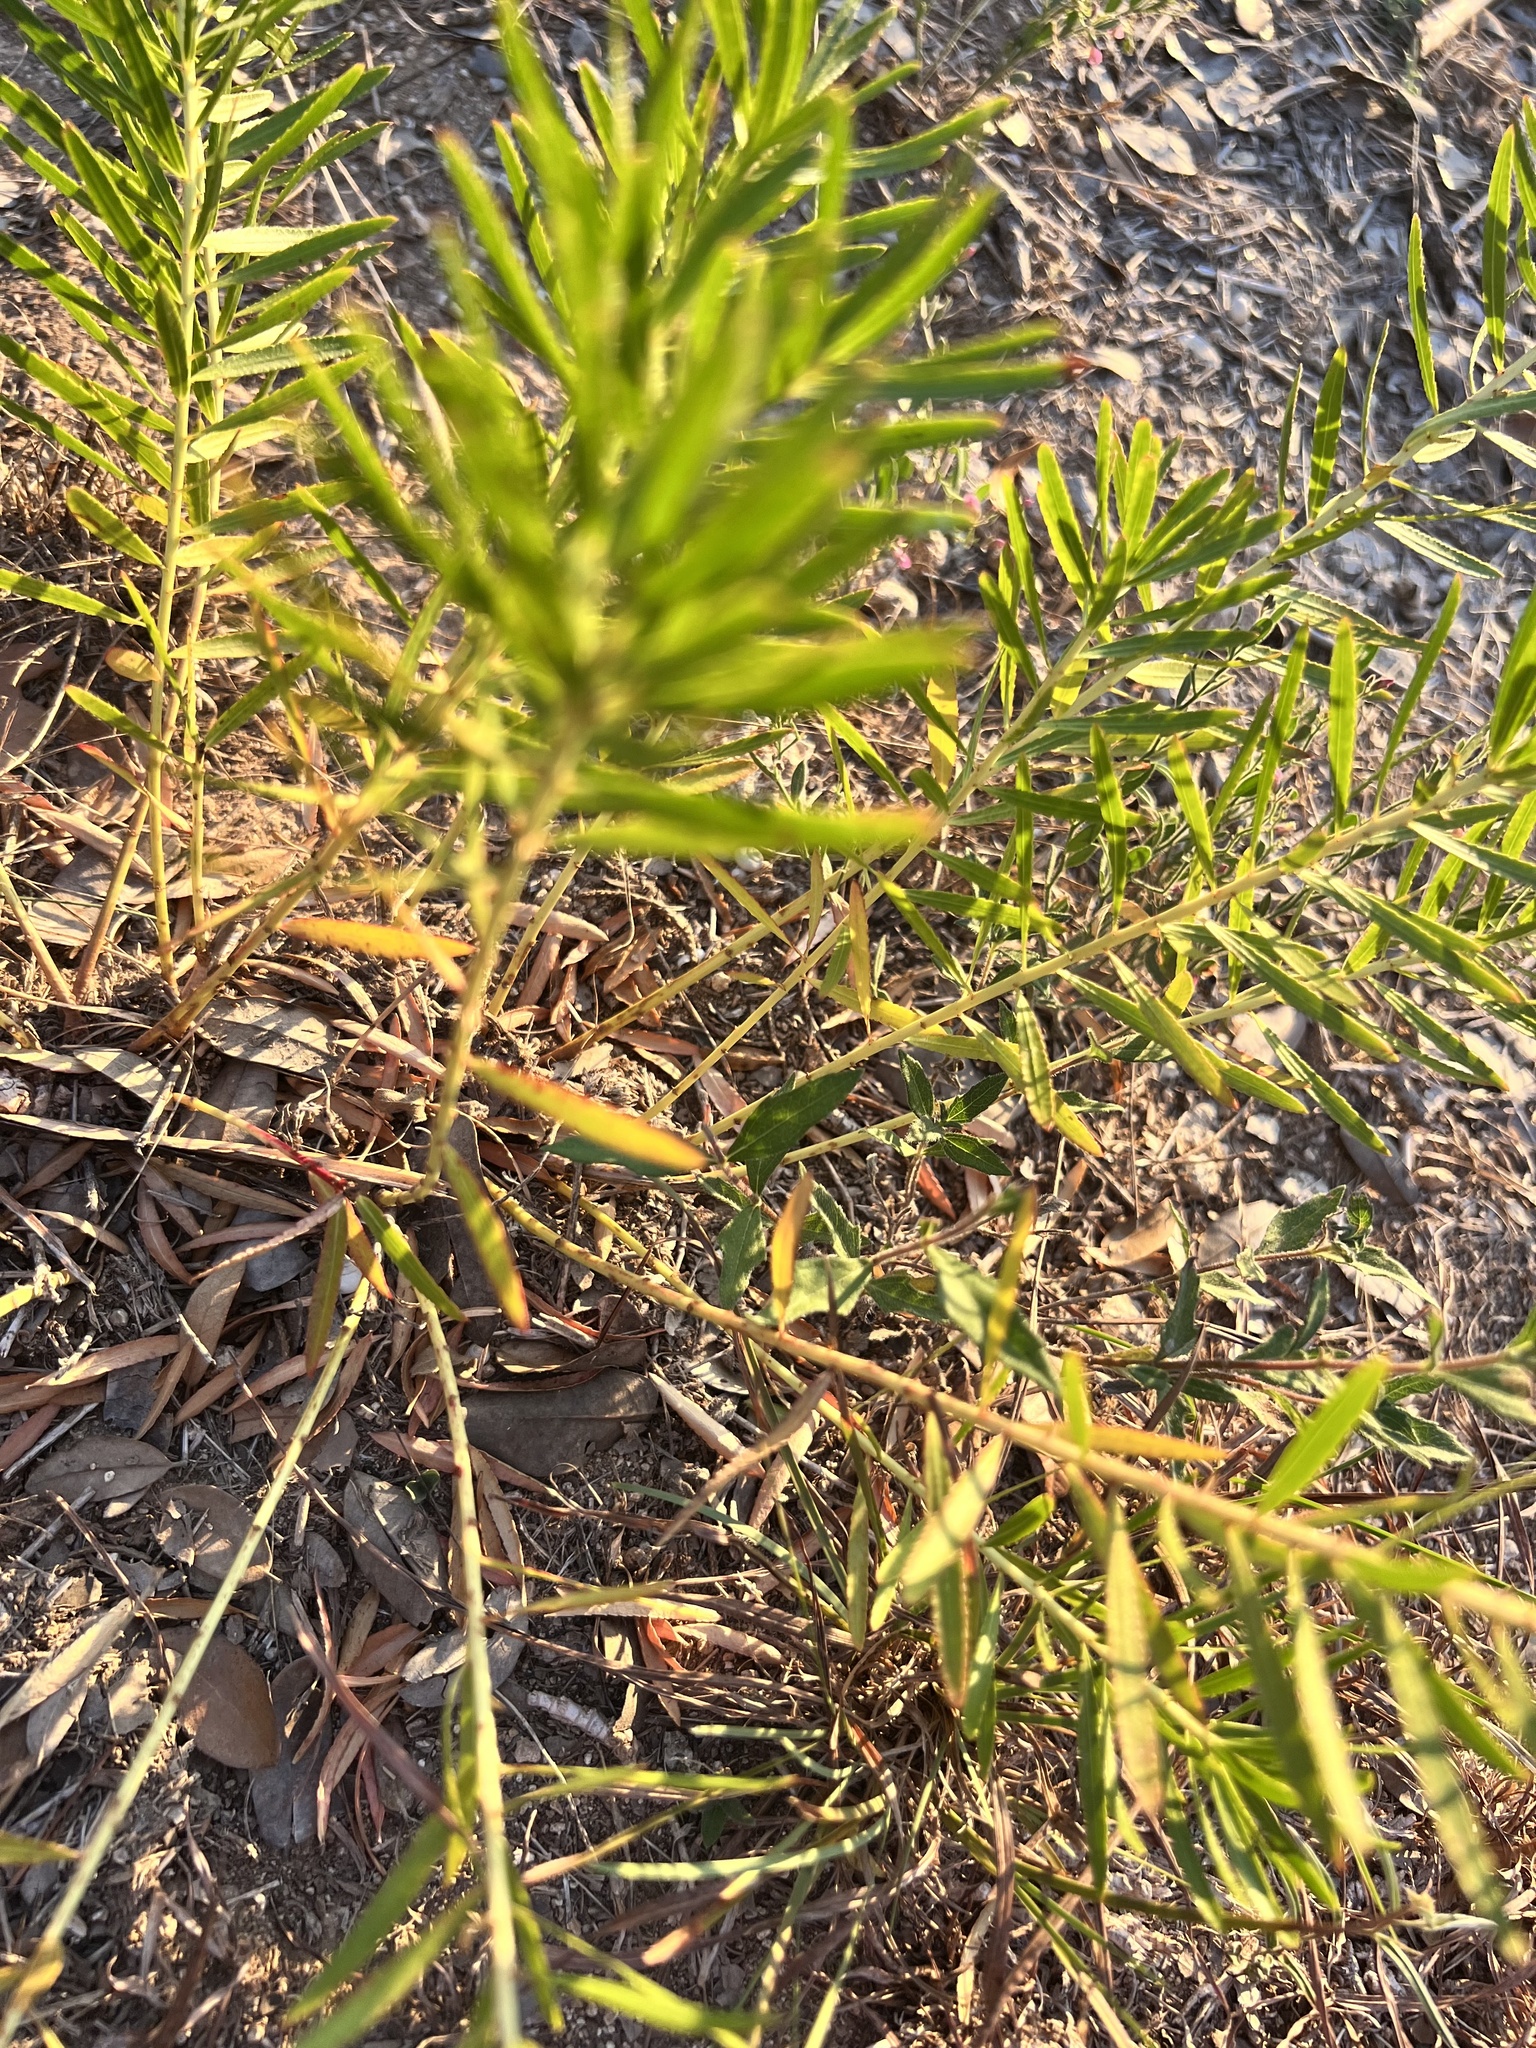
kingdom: Plantae
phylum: Tracheophyta
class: Magnoliopsida
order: Malpighiales
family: Euphorbiaceae
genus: Stillingia
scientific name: Stillingia texana
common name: Texas stillingia
